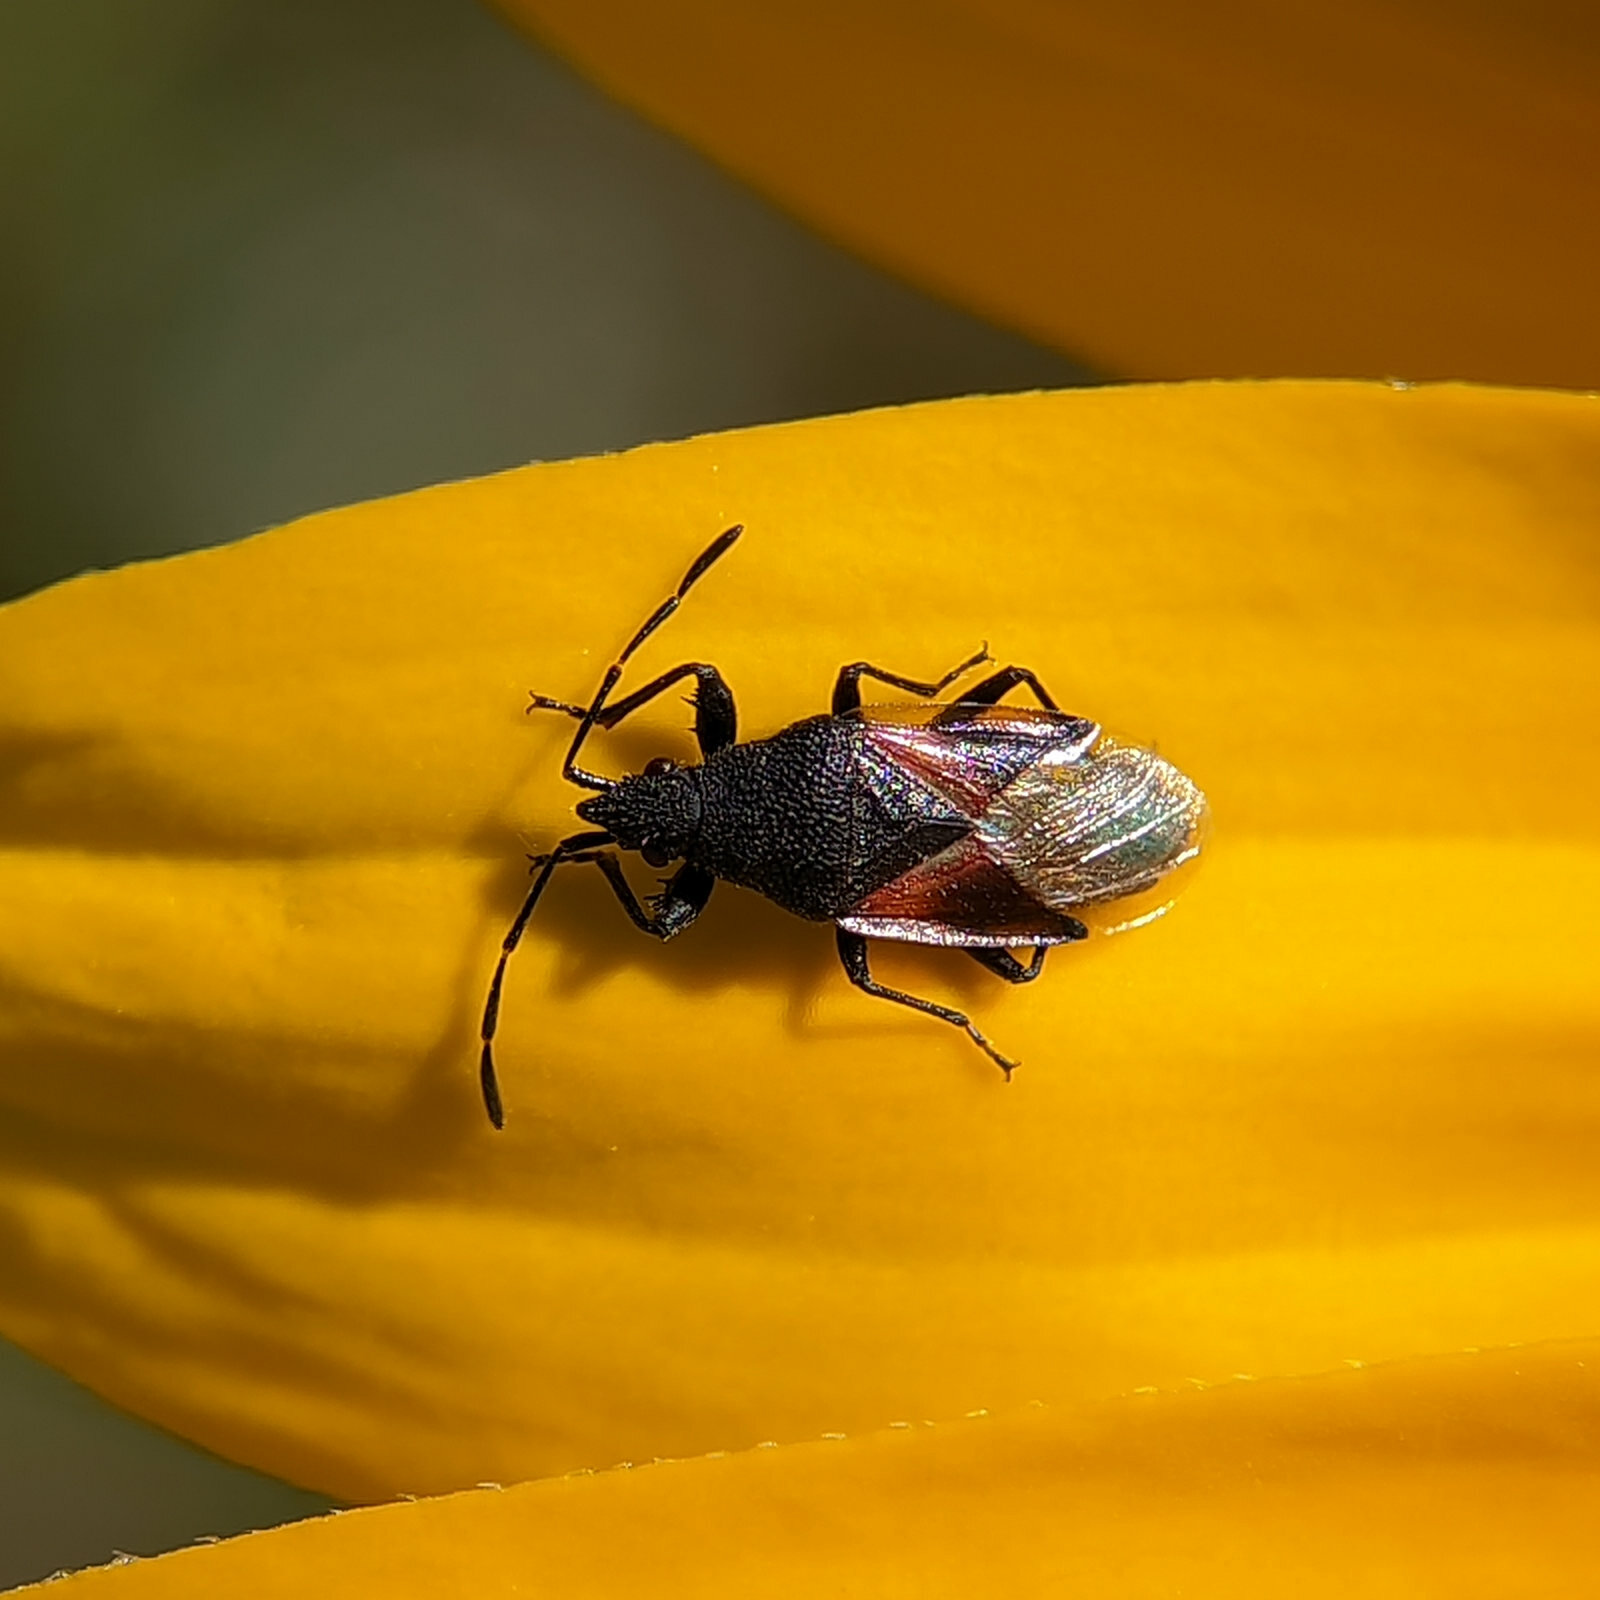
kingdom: Animalia
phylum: Arthropoda
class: Insecta
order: Hemiptera
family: Oxycarenidae
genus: Oxycarenus
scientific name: Oxycarenus lavaterae
